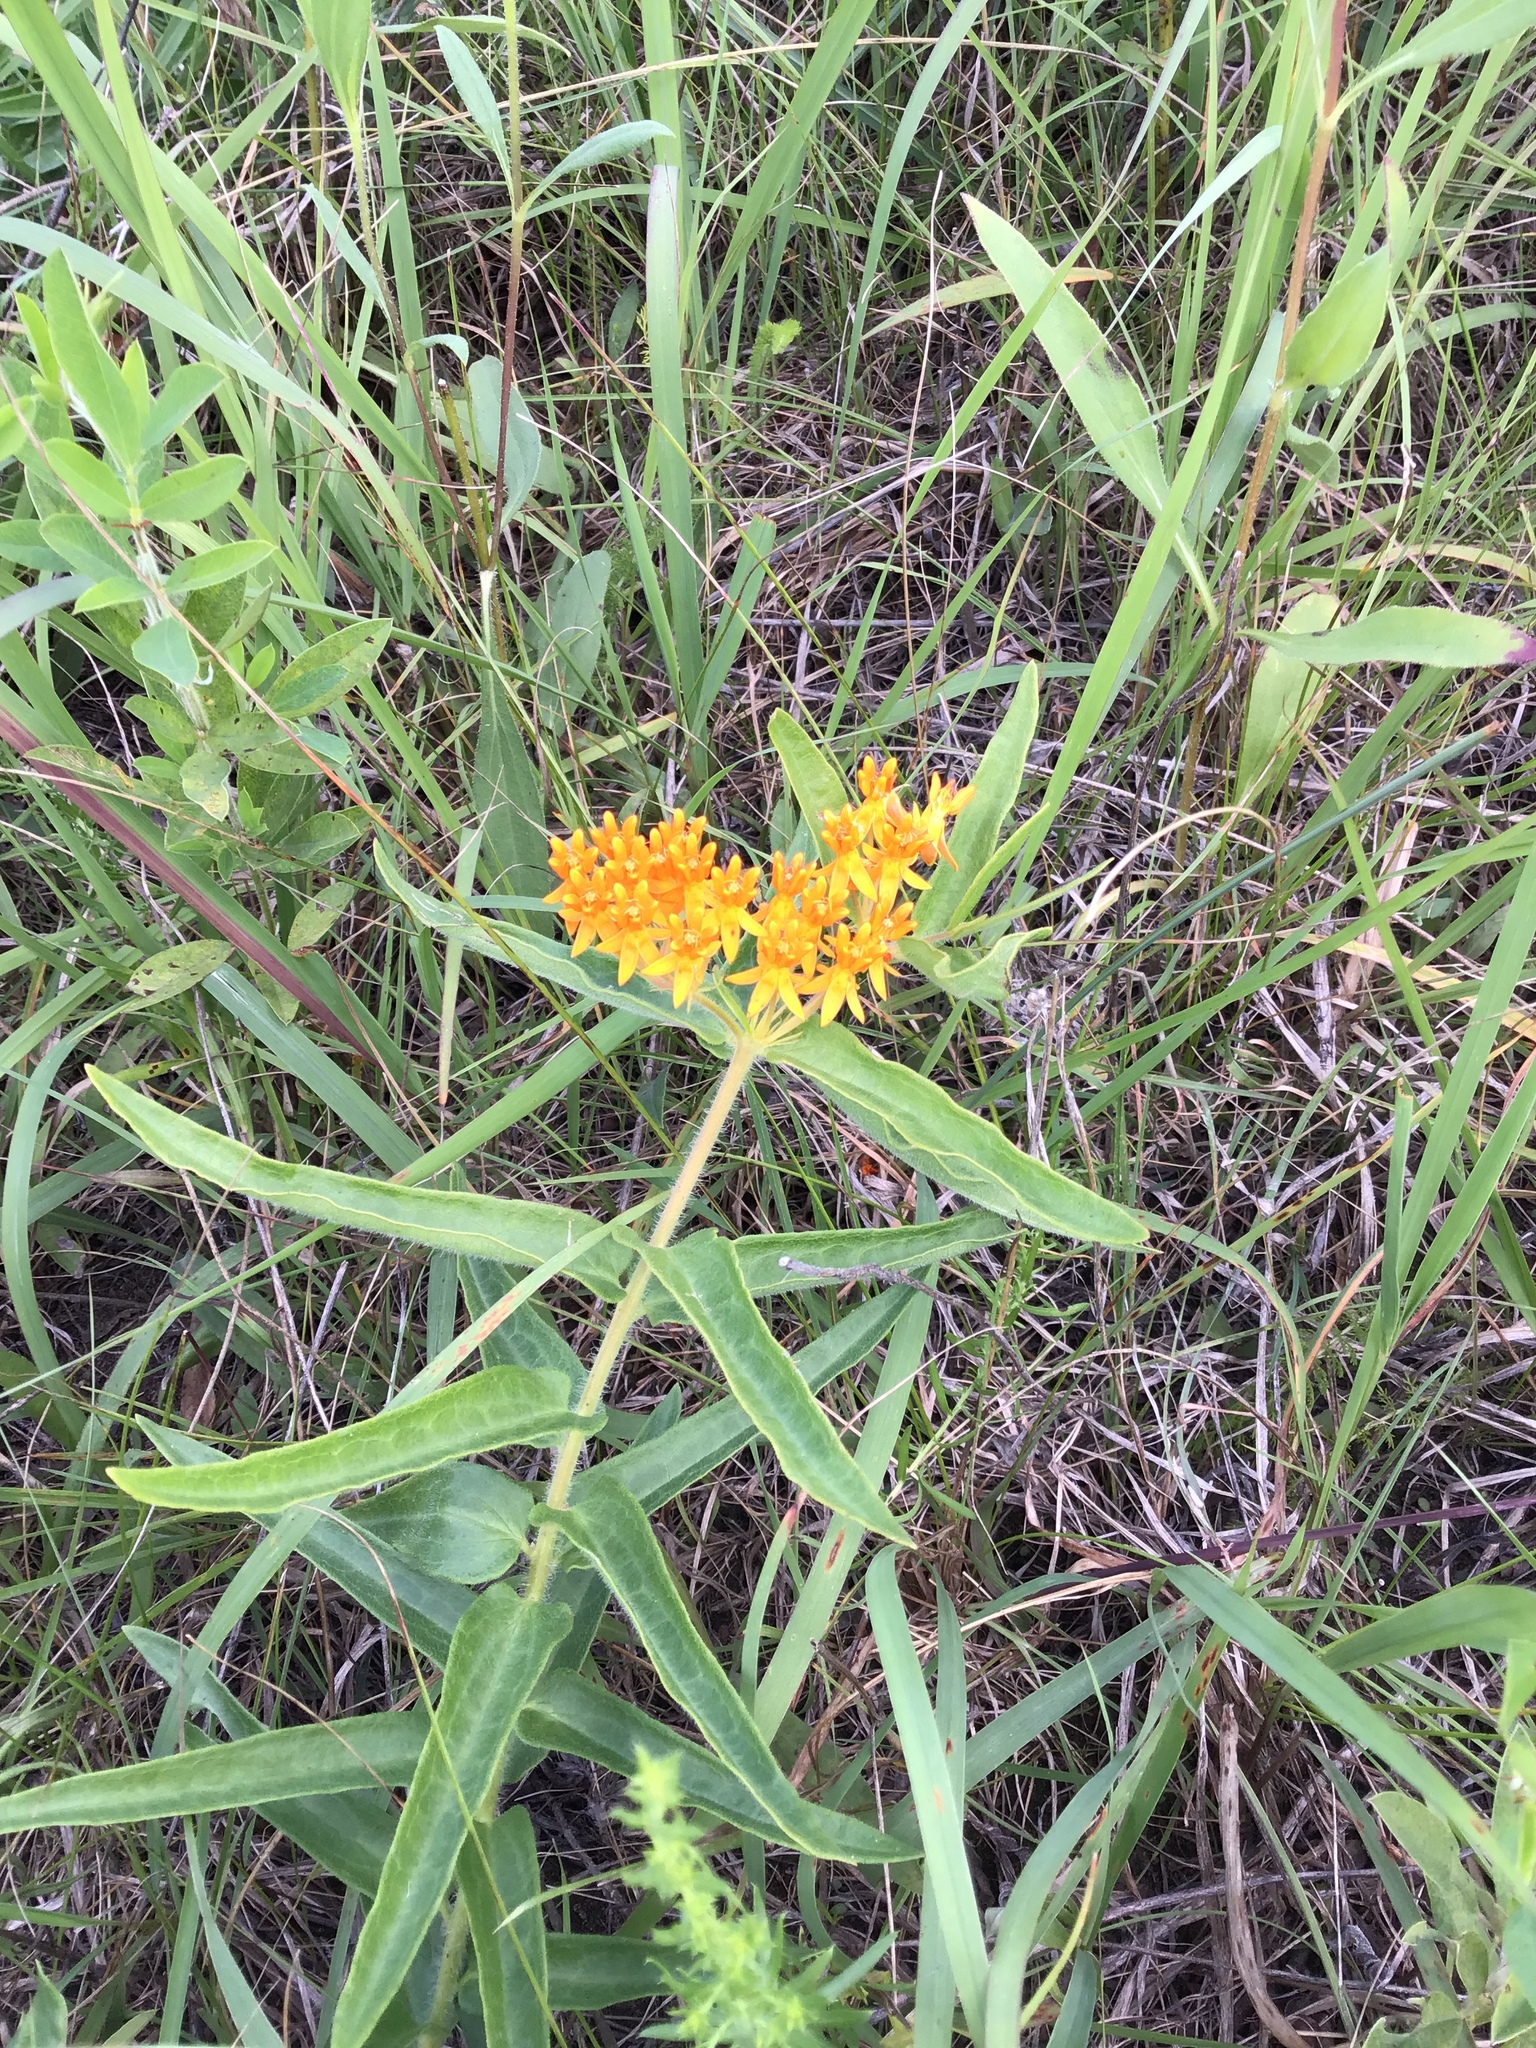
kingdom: Plantae
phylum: Tracheophyta
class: Magnoliopsida
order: Gentianales
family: Apocynaceae
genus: Asclepias
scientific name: Asclepias tuberosa
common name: Butterfly milkweed
